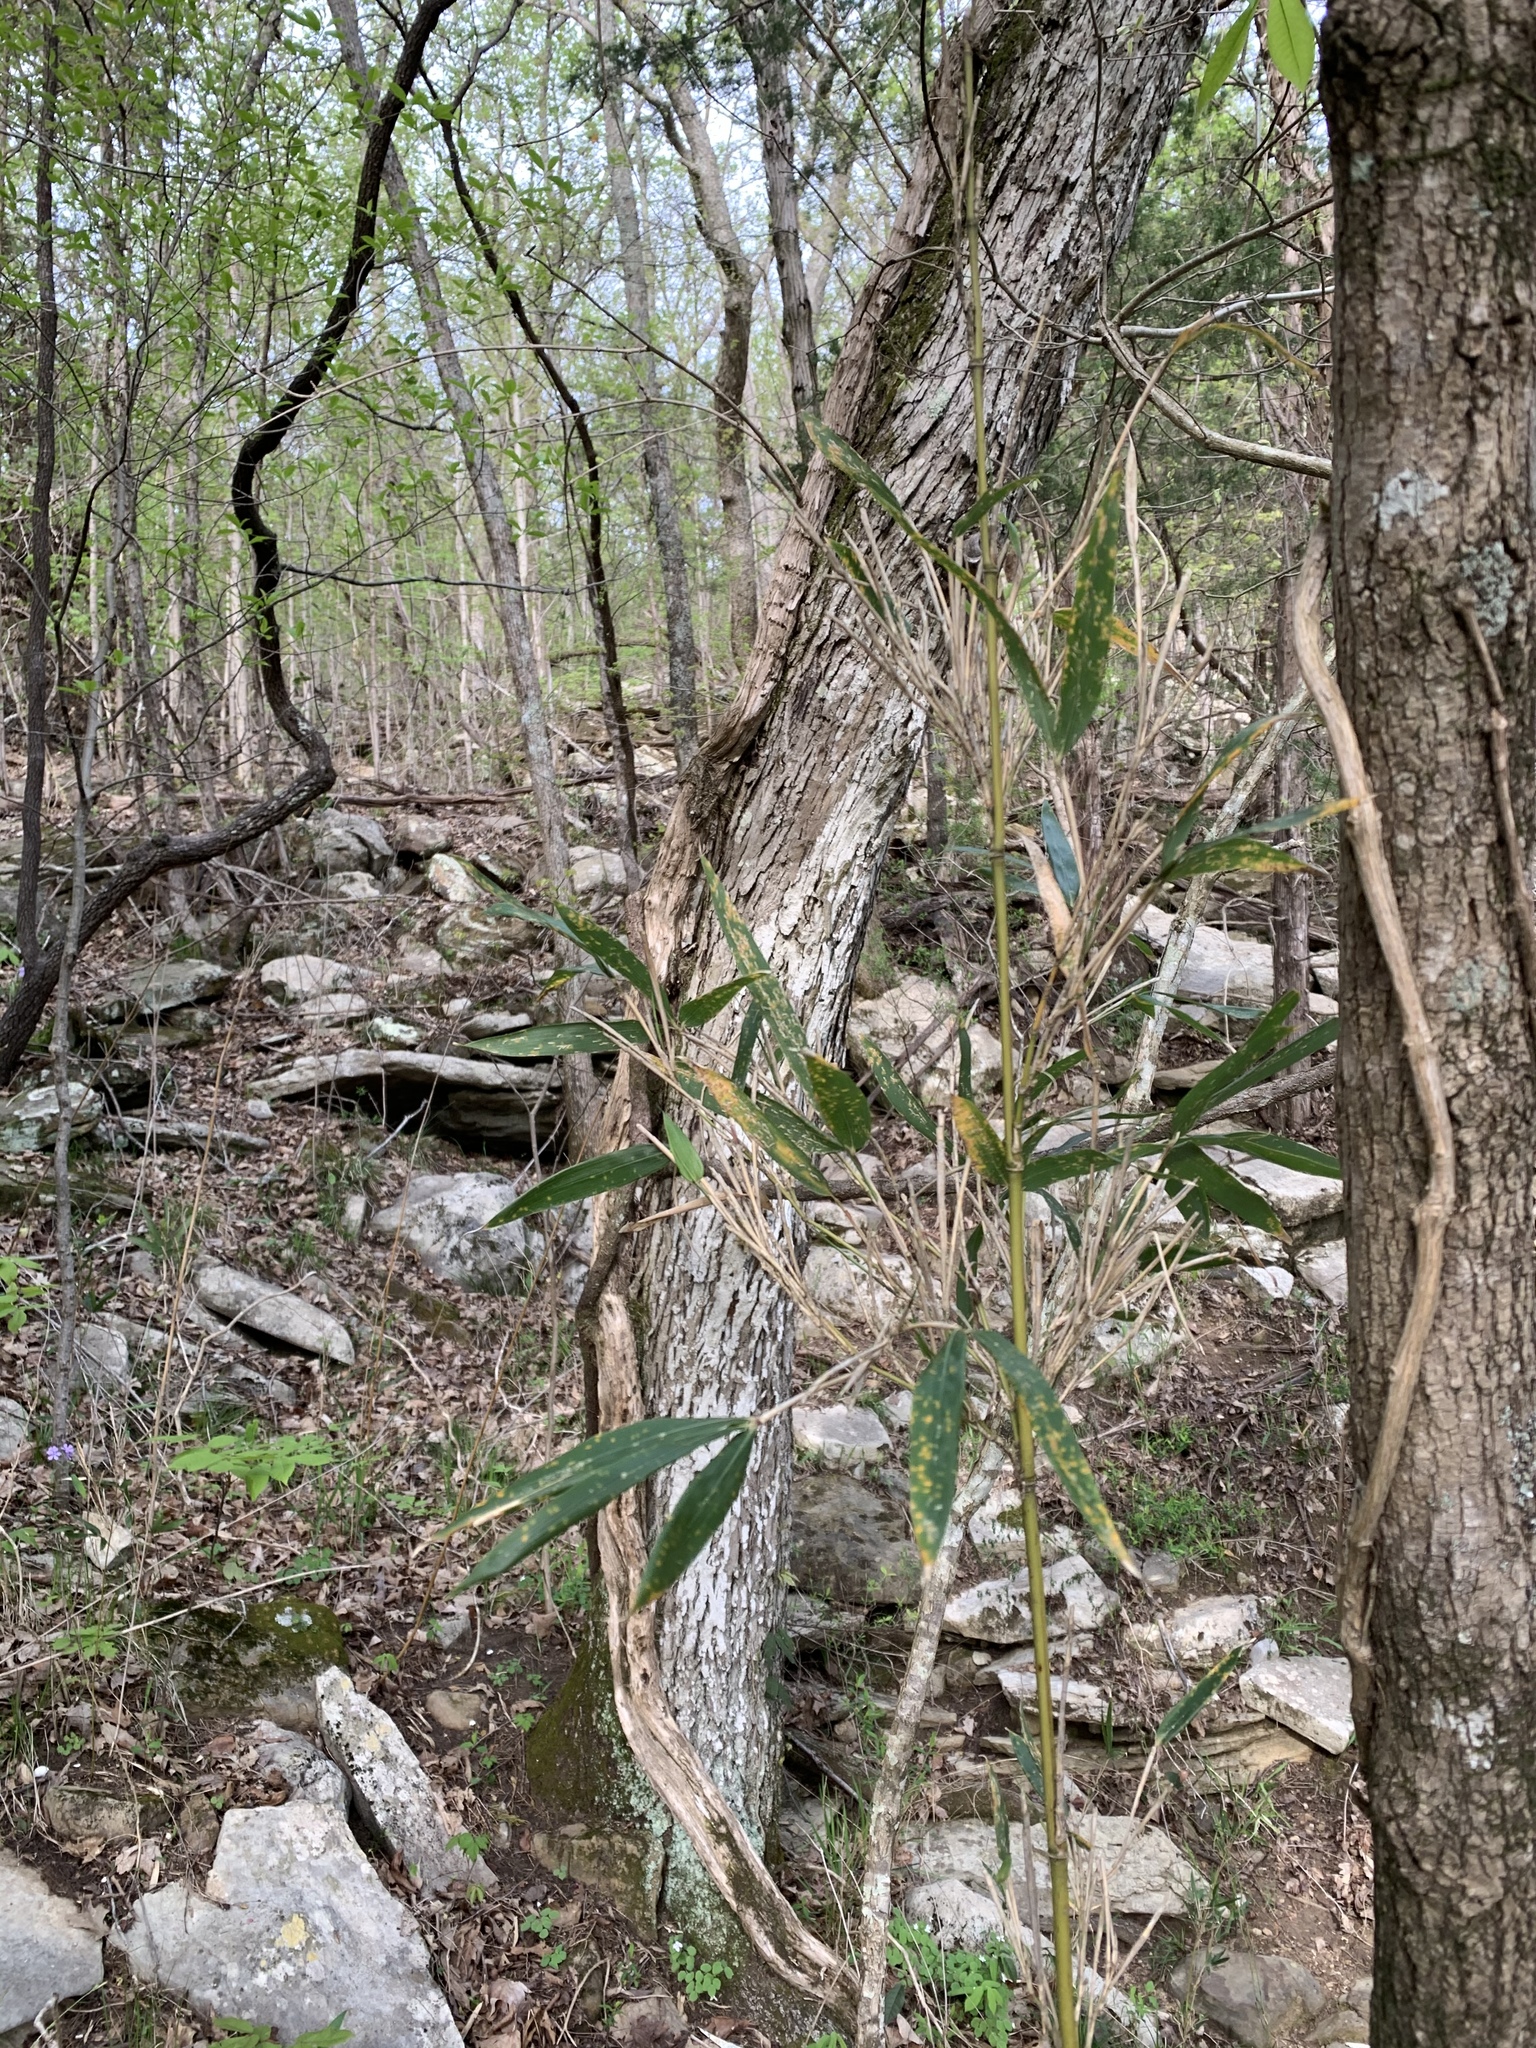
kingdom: Plantae
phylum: Tracheophyta
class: Liliopsida
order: Poales
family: Poaceae
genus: Arundinaria
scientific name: Arundinaria gigantea
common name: Giant cane
